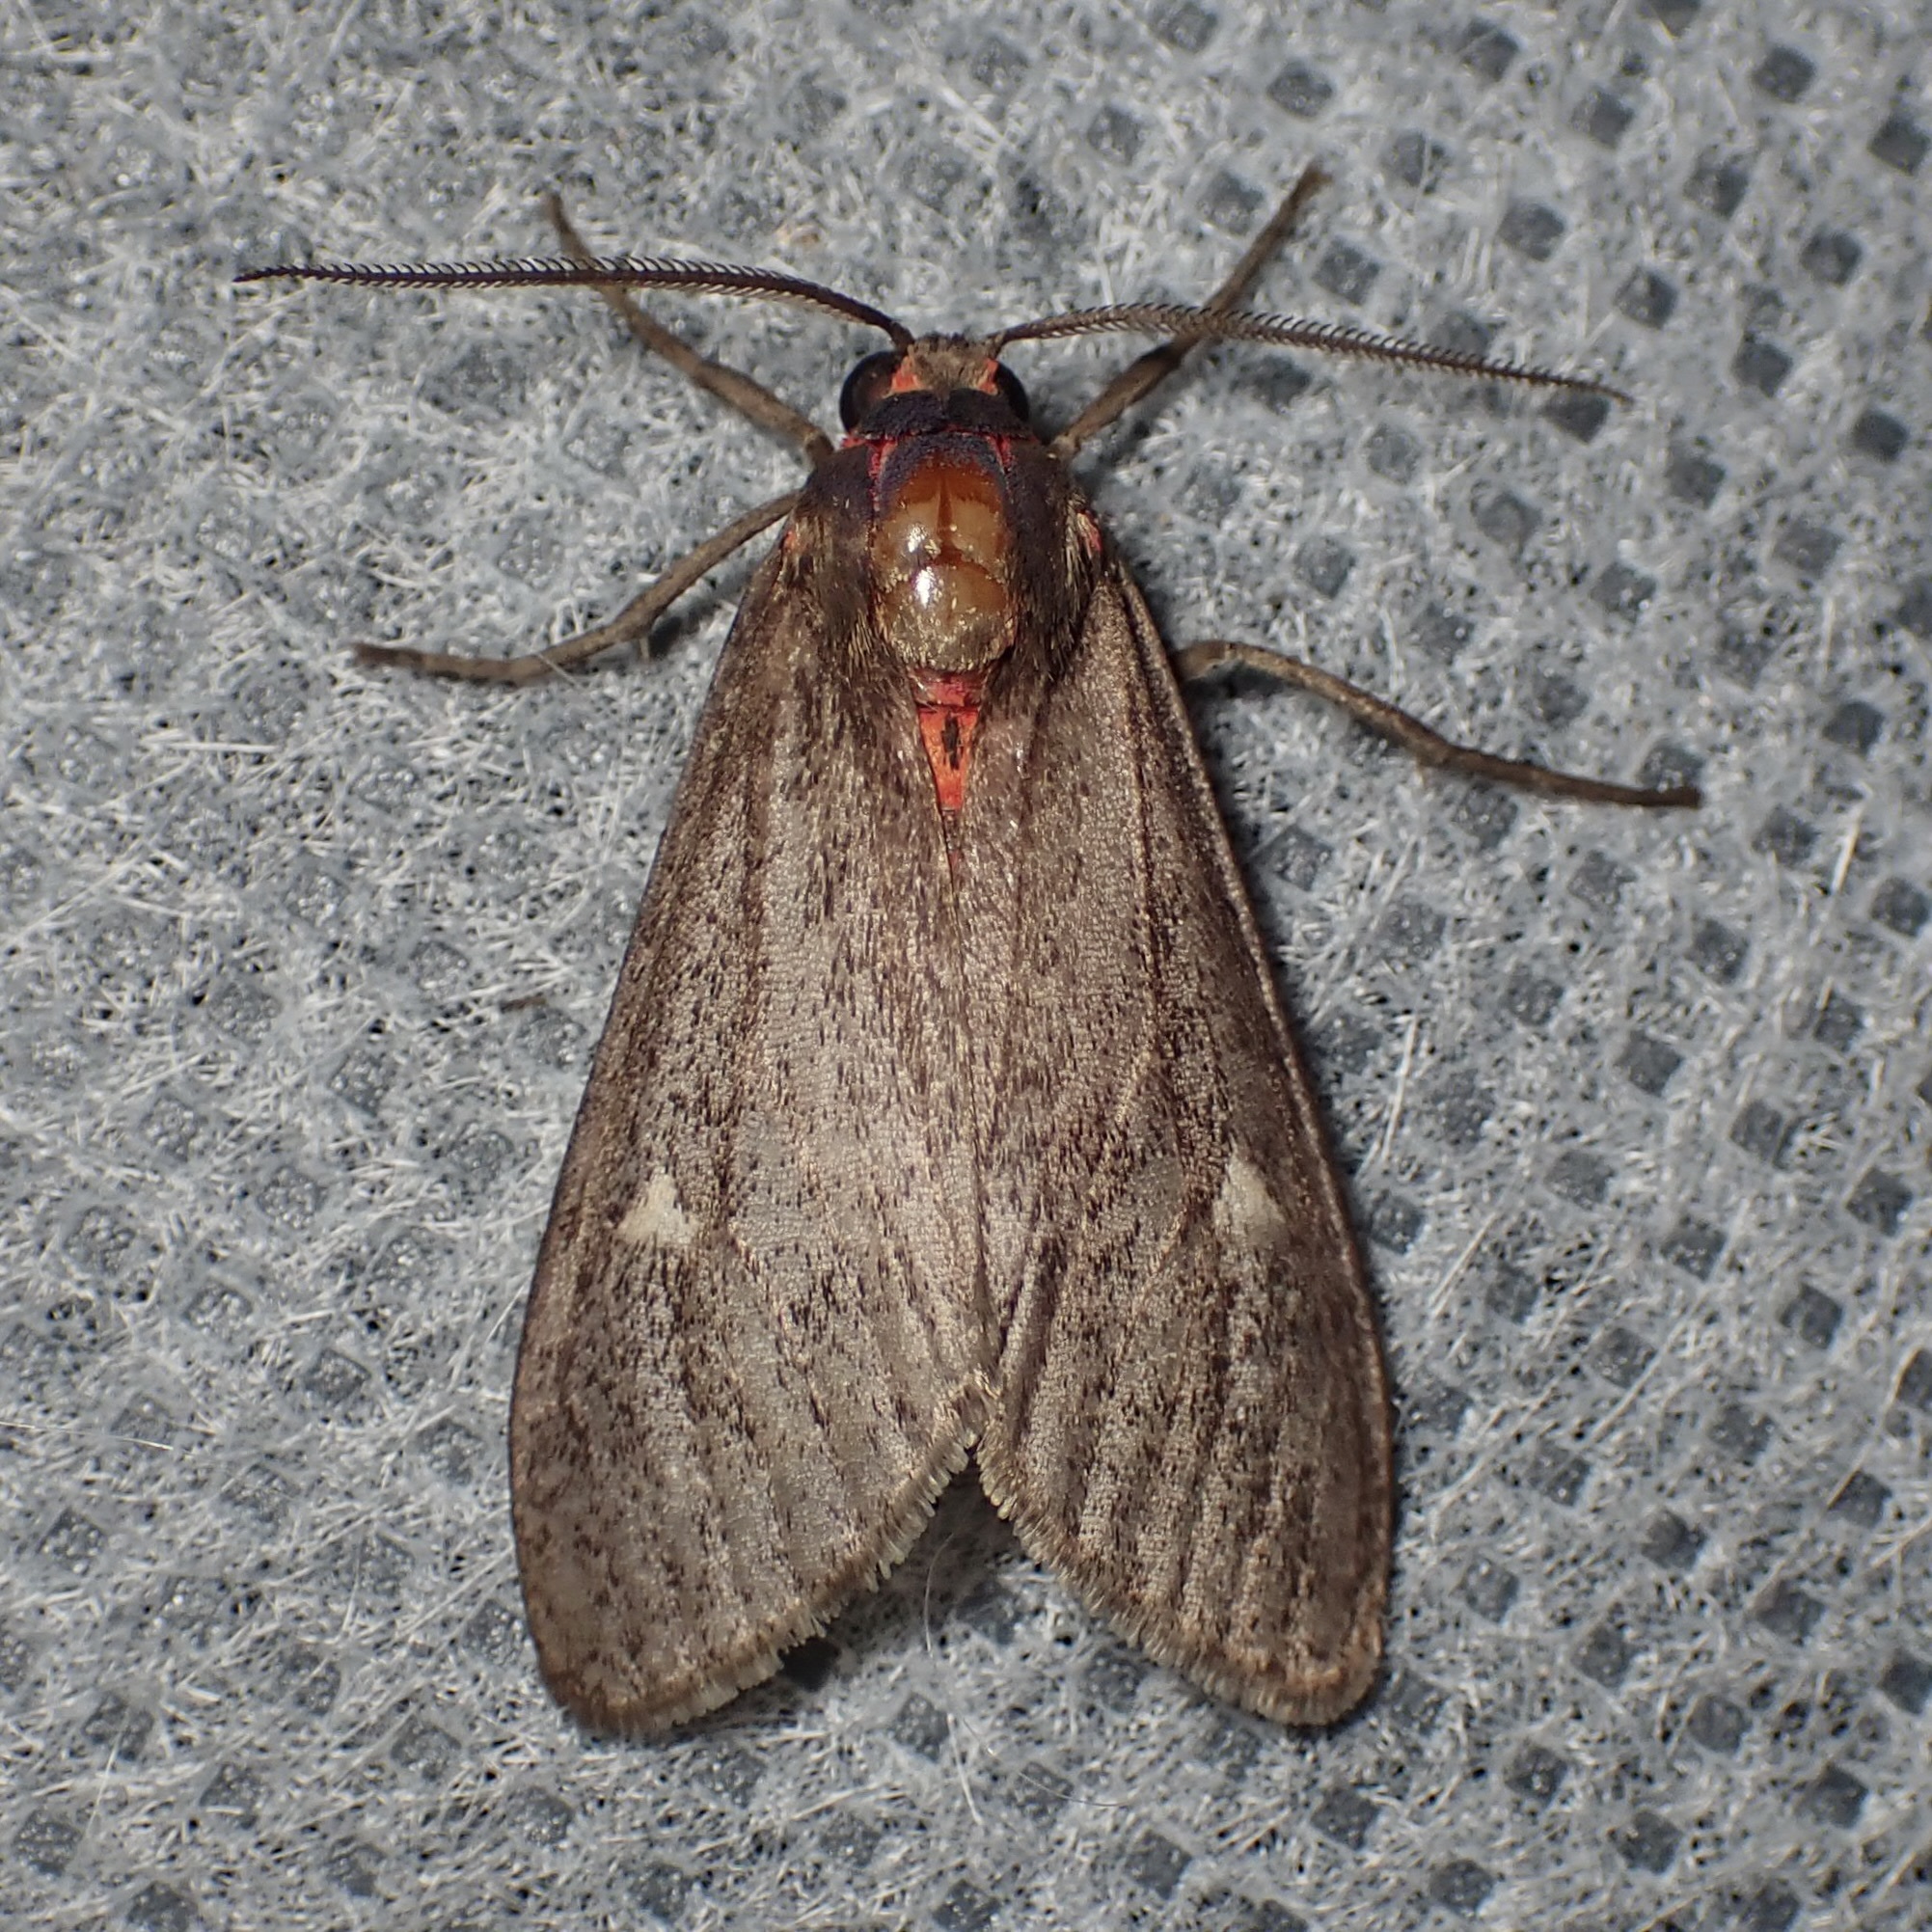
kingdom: Animalia
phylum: Arthropoda
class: Insecta
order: Lepidoptera
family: Erebidae
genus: Euchaetes
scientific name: Euchaetes zella
